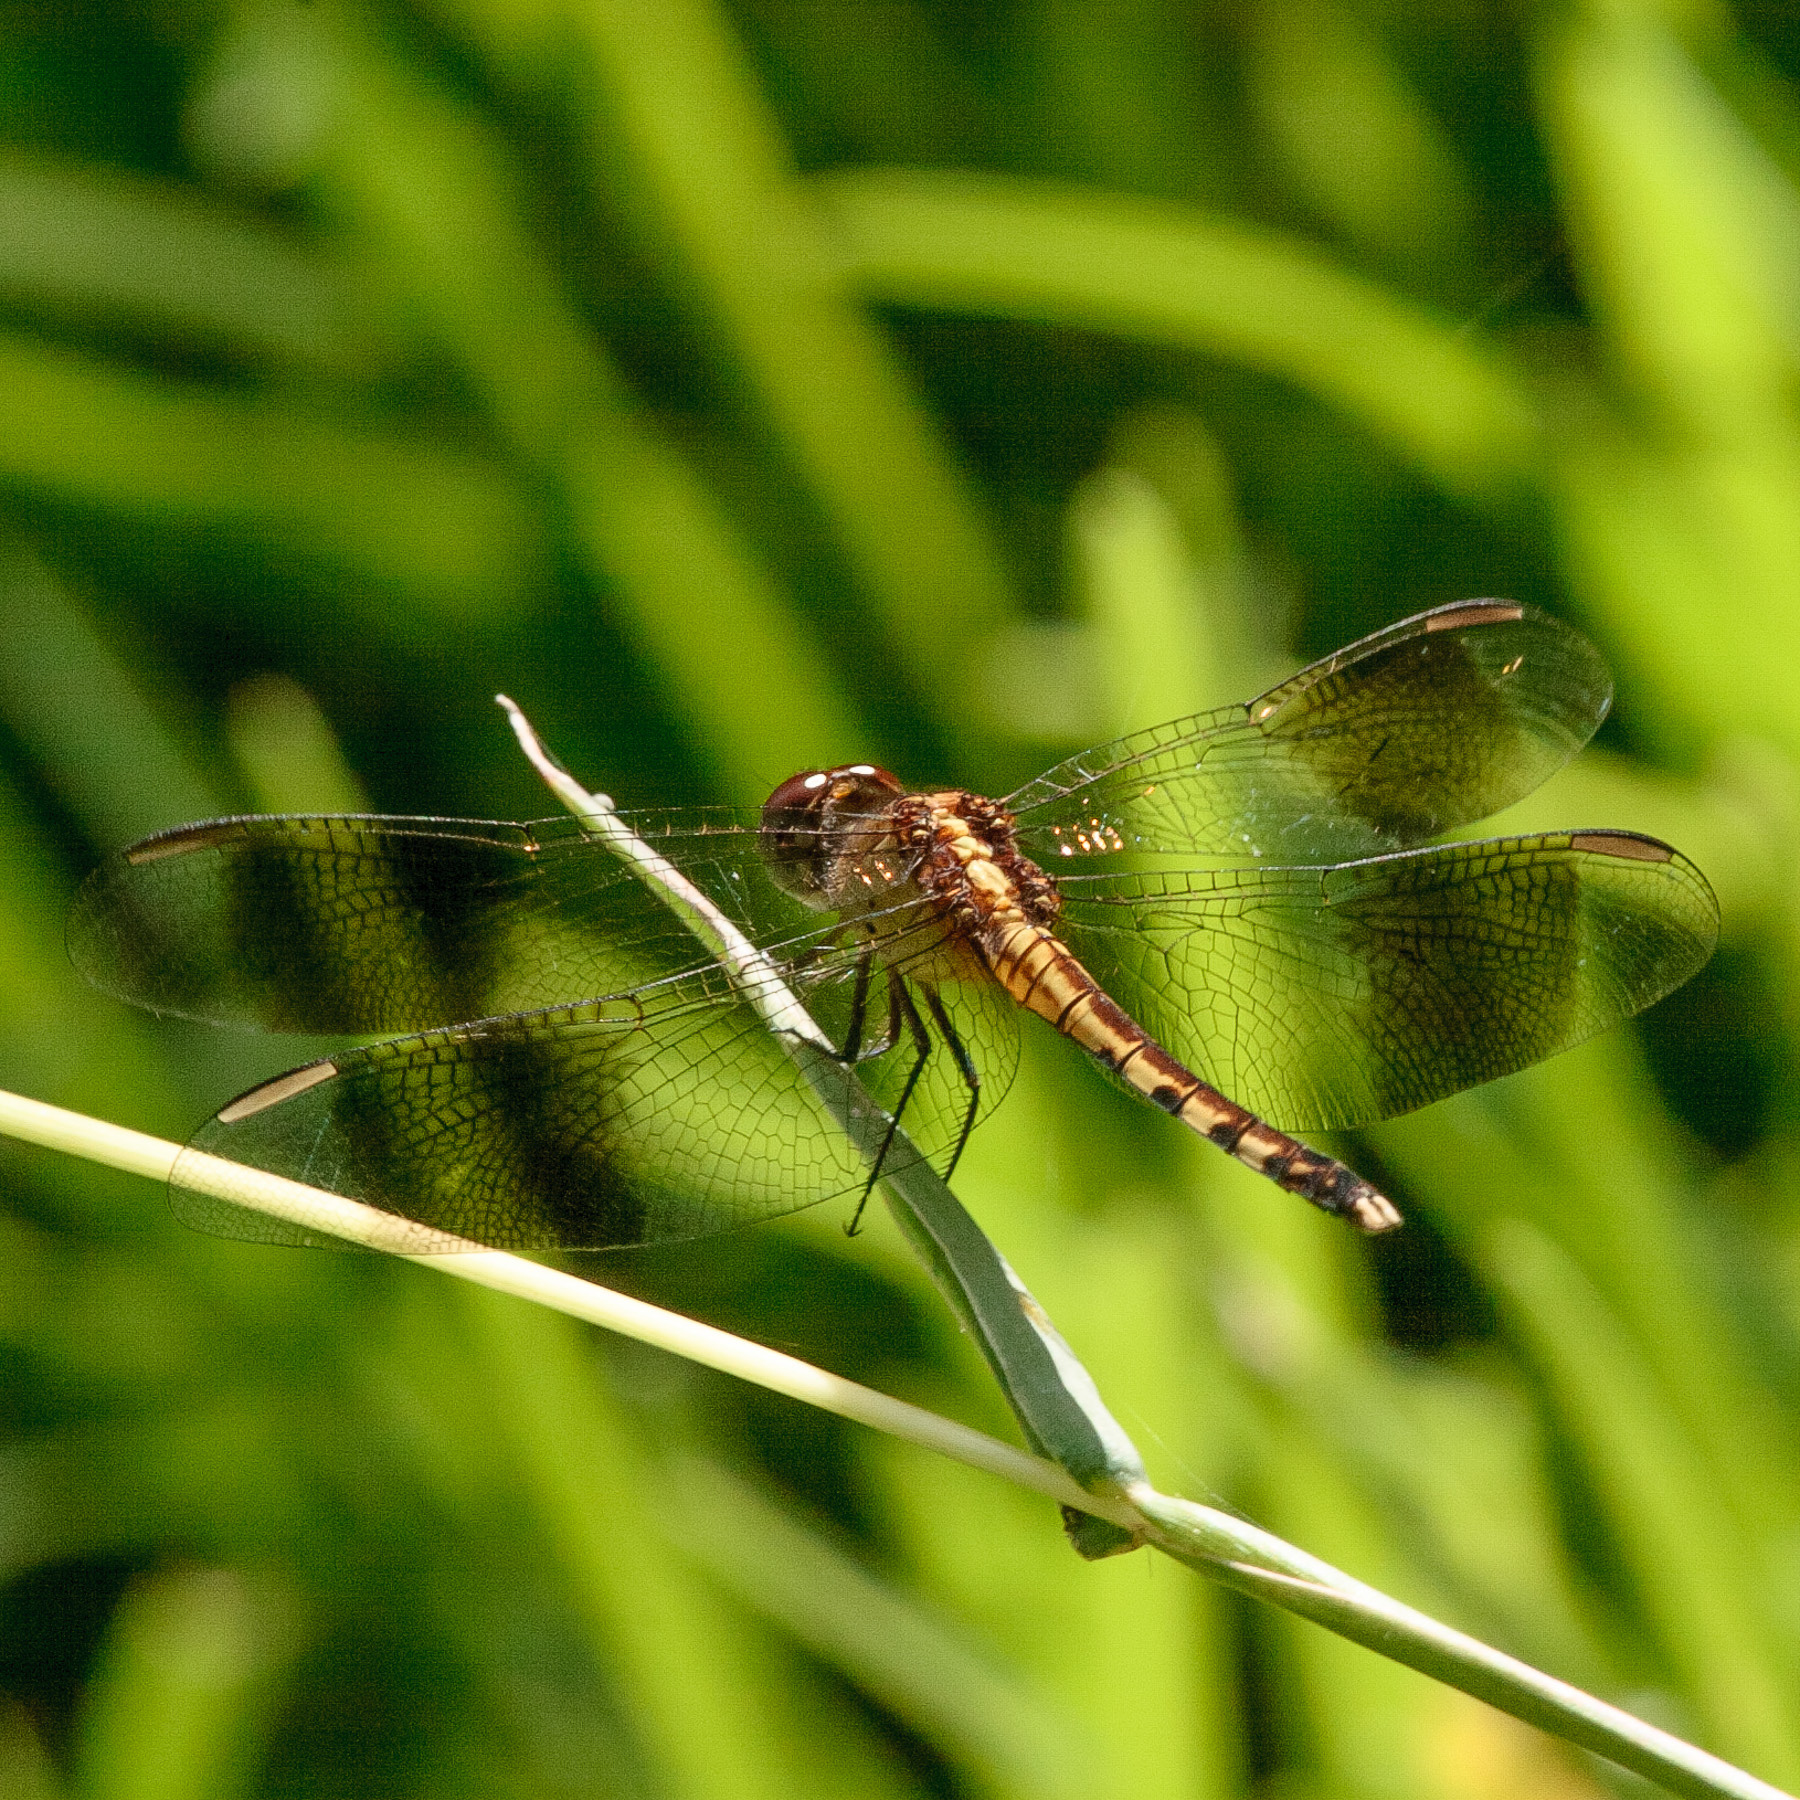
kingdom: Animalia
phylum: Arthropoda
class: Insecta
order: Odonata
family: Libellulidae
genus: Erythrodiplax
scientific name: Erythrodiplax umbrata
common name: Band-winged dragonlet
